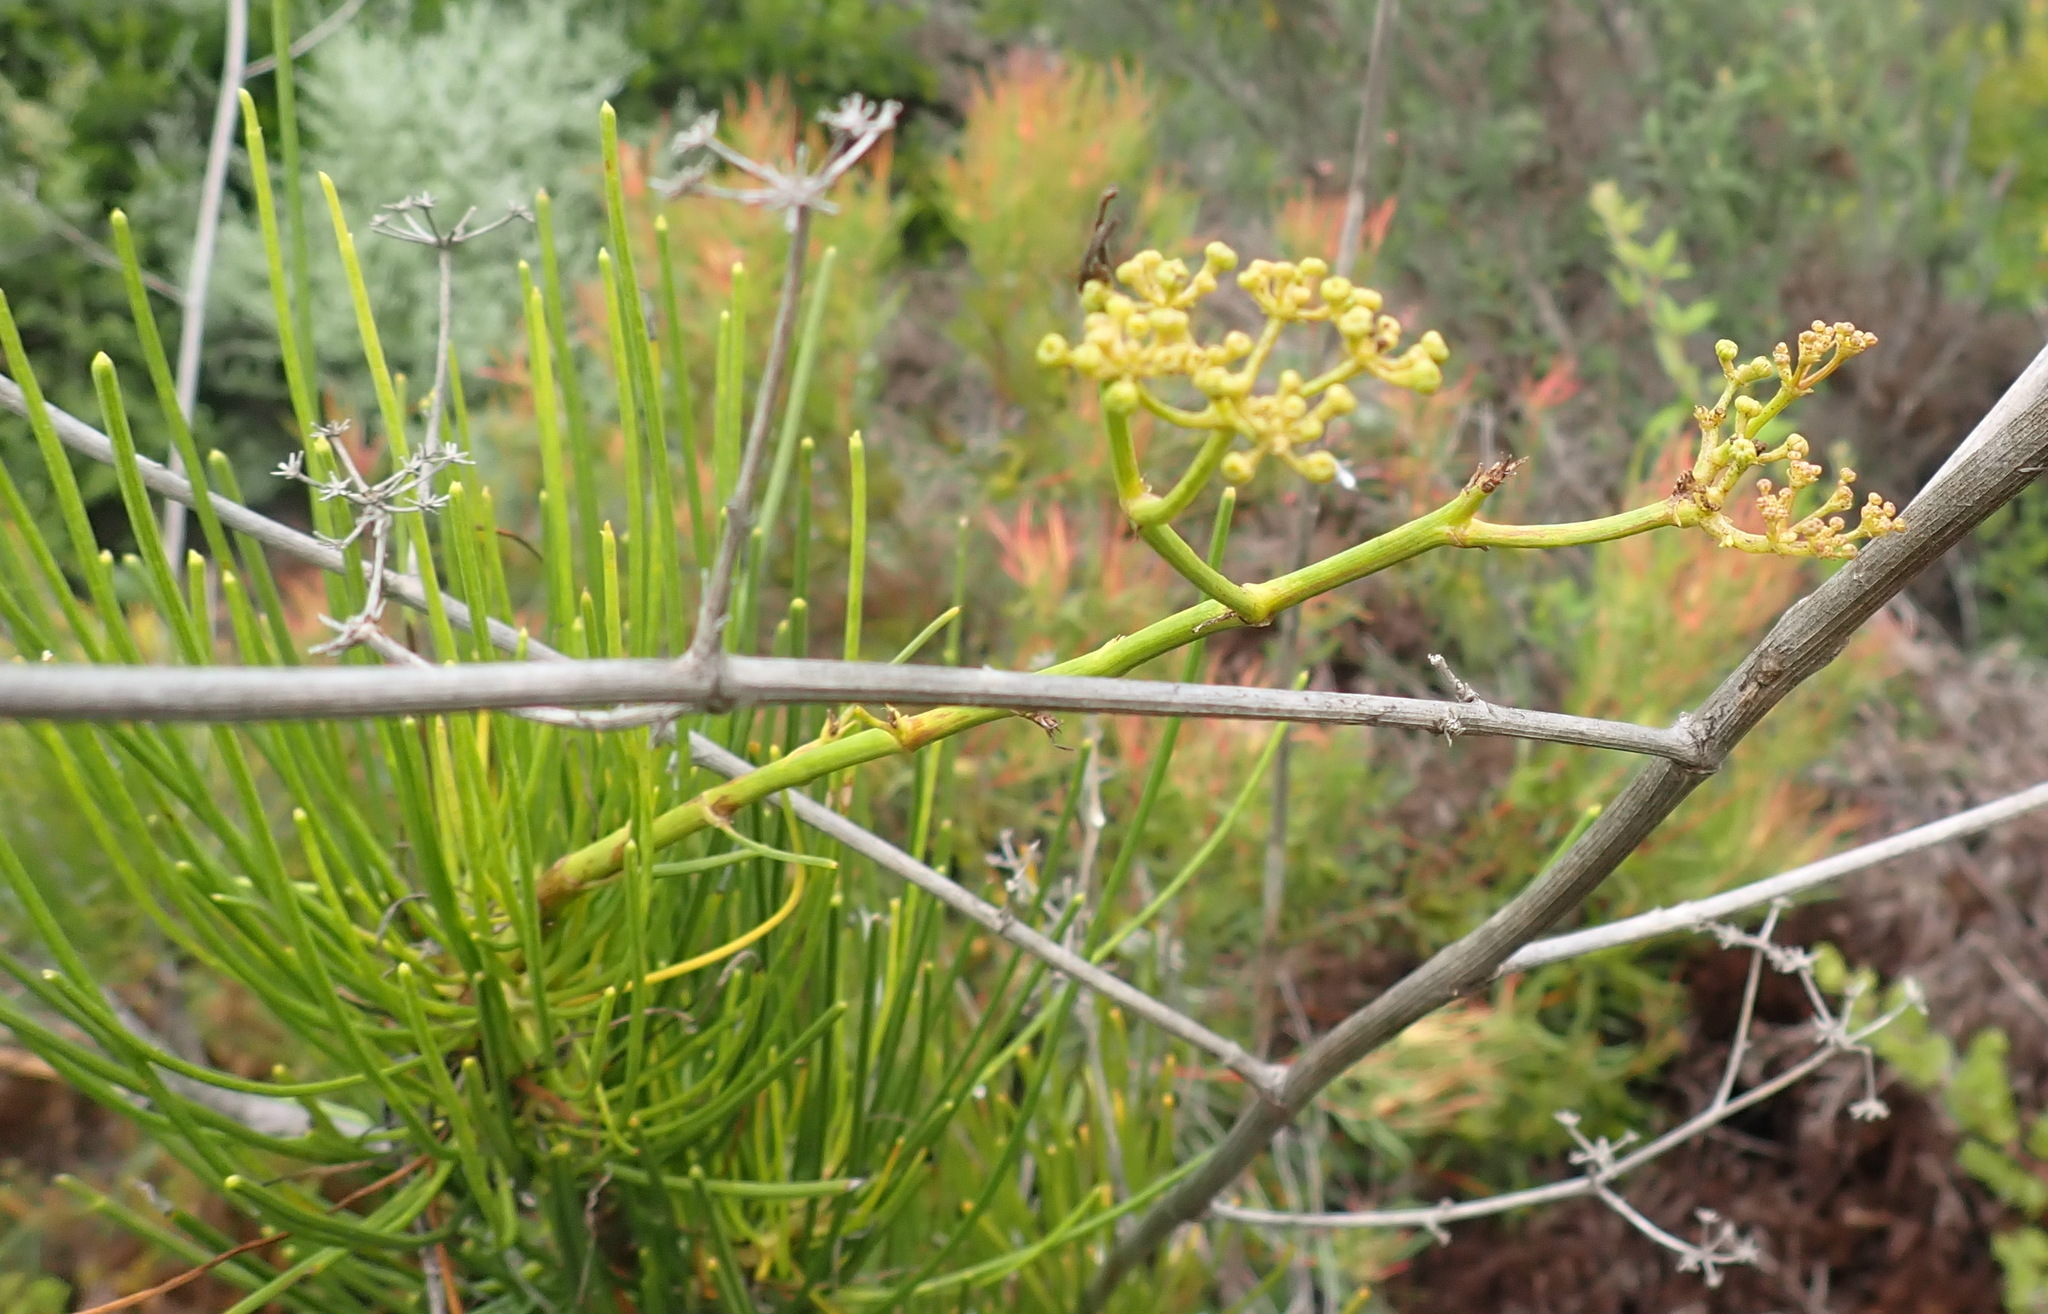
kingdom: Plantae
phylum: Tracheophyta
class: Magnoliopsida
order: Apiales
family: Apiaceae
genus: Anginon
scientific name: Anginon difforme
